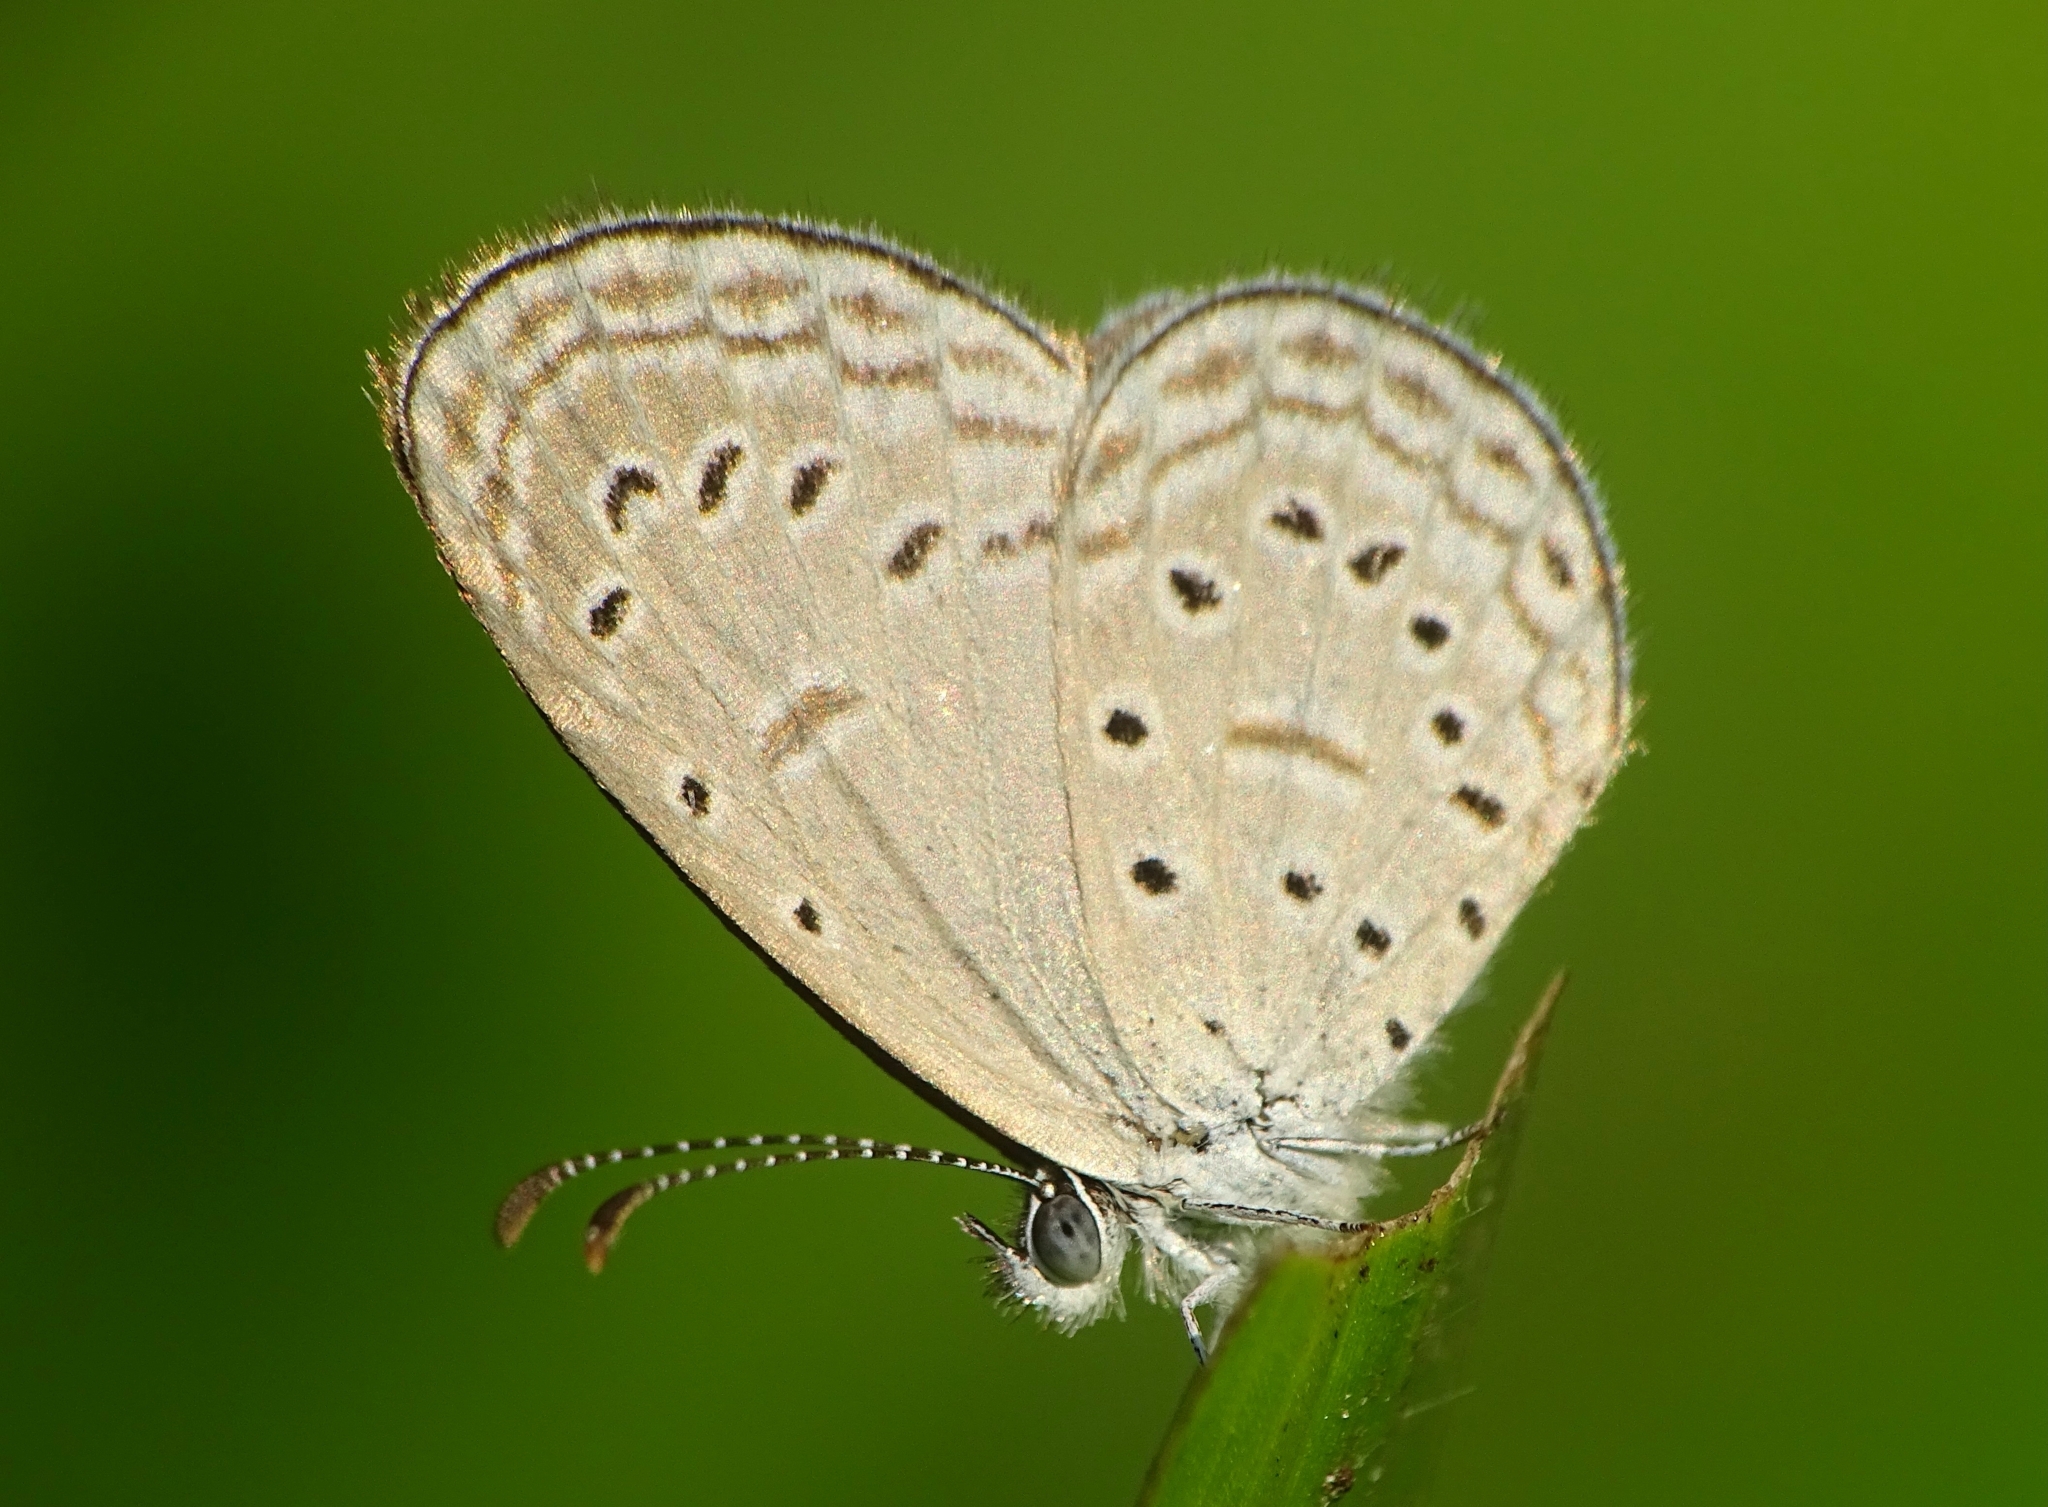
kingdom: Animalia
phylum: Arthropoda
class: Insecta
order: Lepidoptera
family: Lycaenidae
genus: Zizula
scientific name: Zizula hylax
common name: Gaika blue
